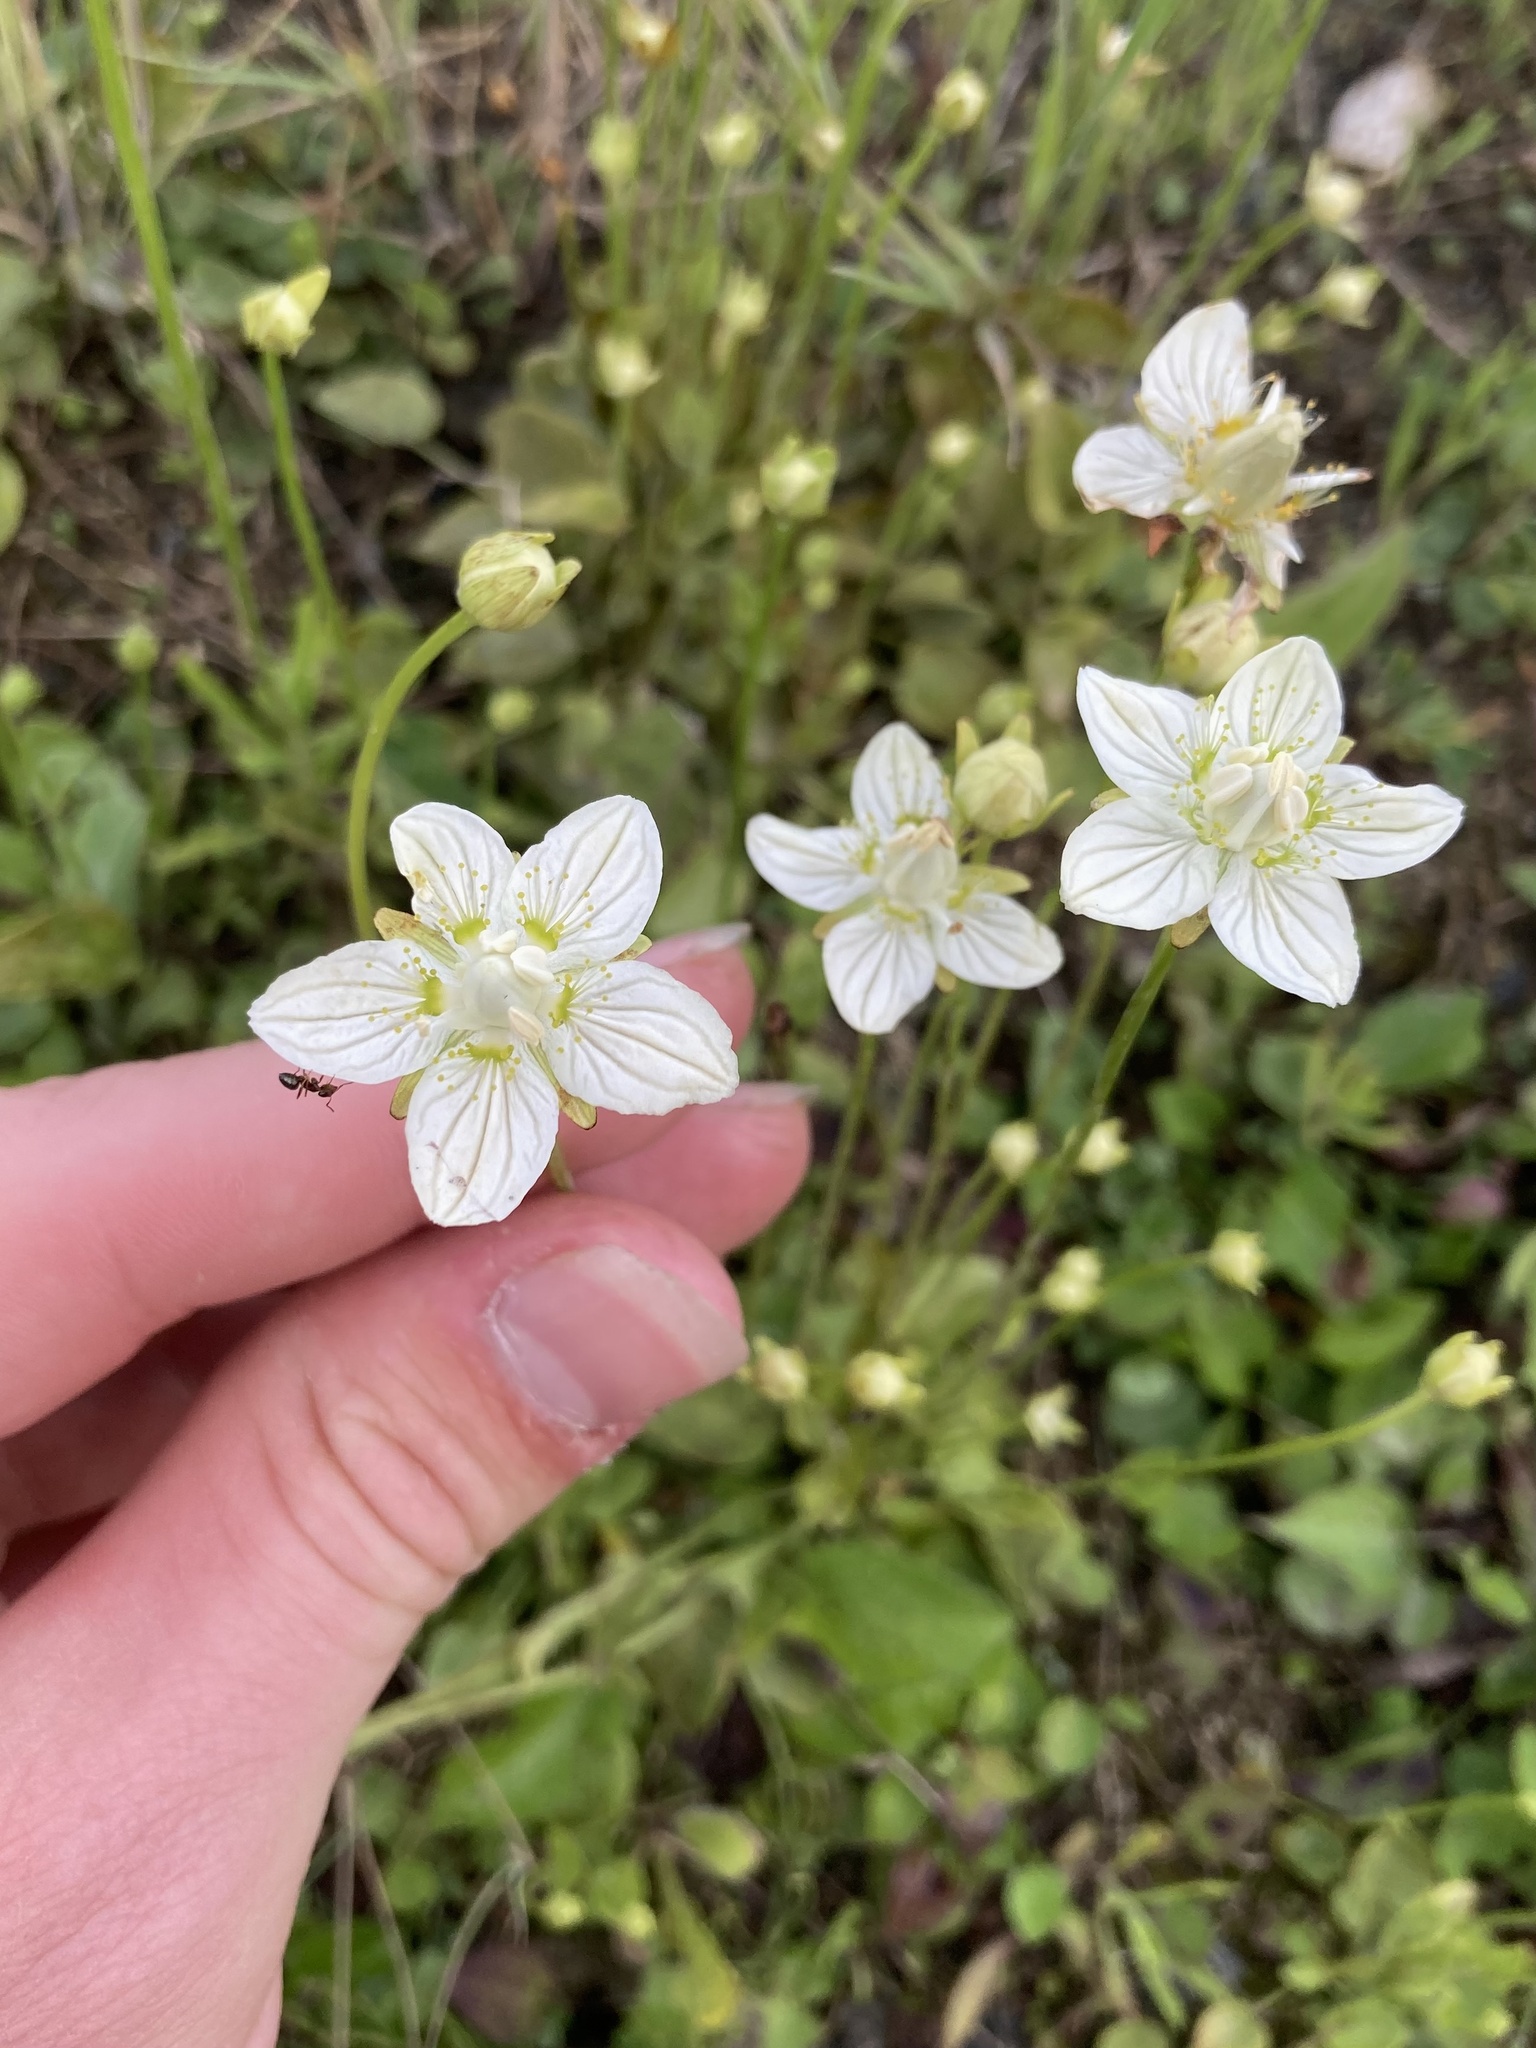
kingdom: Plantae
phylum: Tracheophyta
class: Magnoliopsida
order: Celastrales
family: Parnassiaceae
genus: Parnassia
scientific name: Parnassia palustris
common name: Grass-of-parnassus
